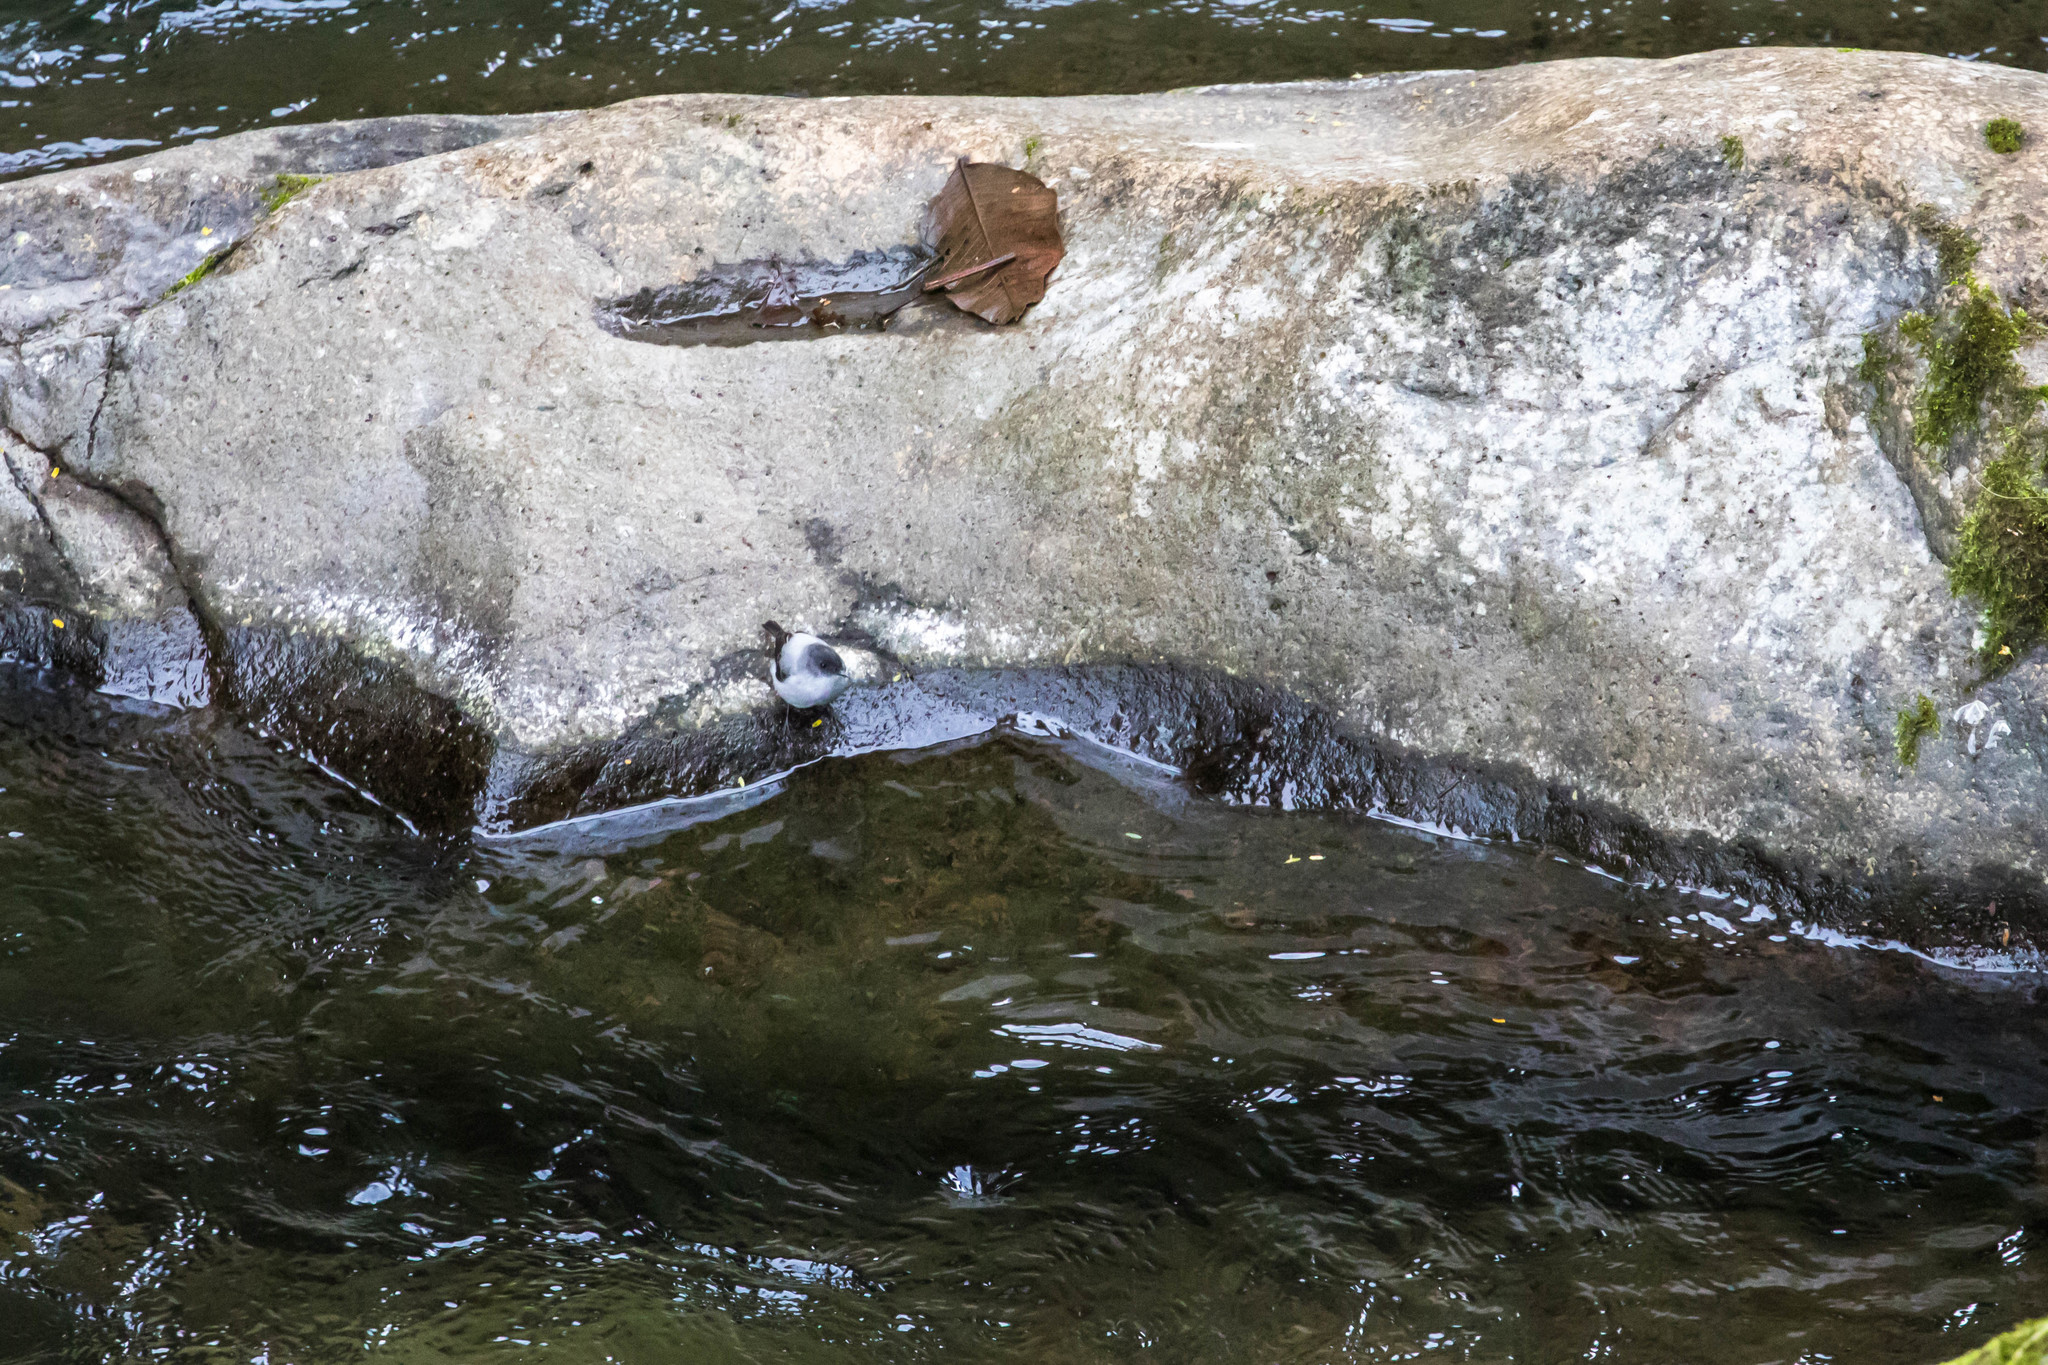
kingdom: Animalia
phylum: Chordata
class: Aves
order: Passeriformes
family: Tyrannidae
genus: Serpophaga
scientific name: Serpophaga cinerea
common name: Torrent tyrannulet
